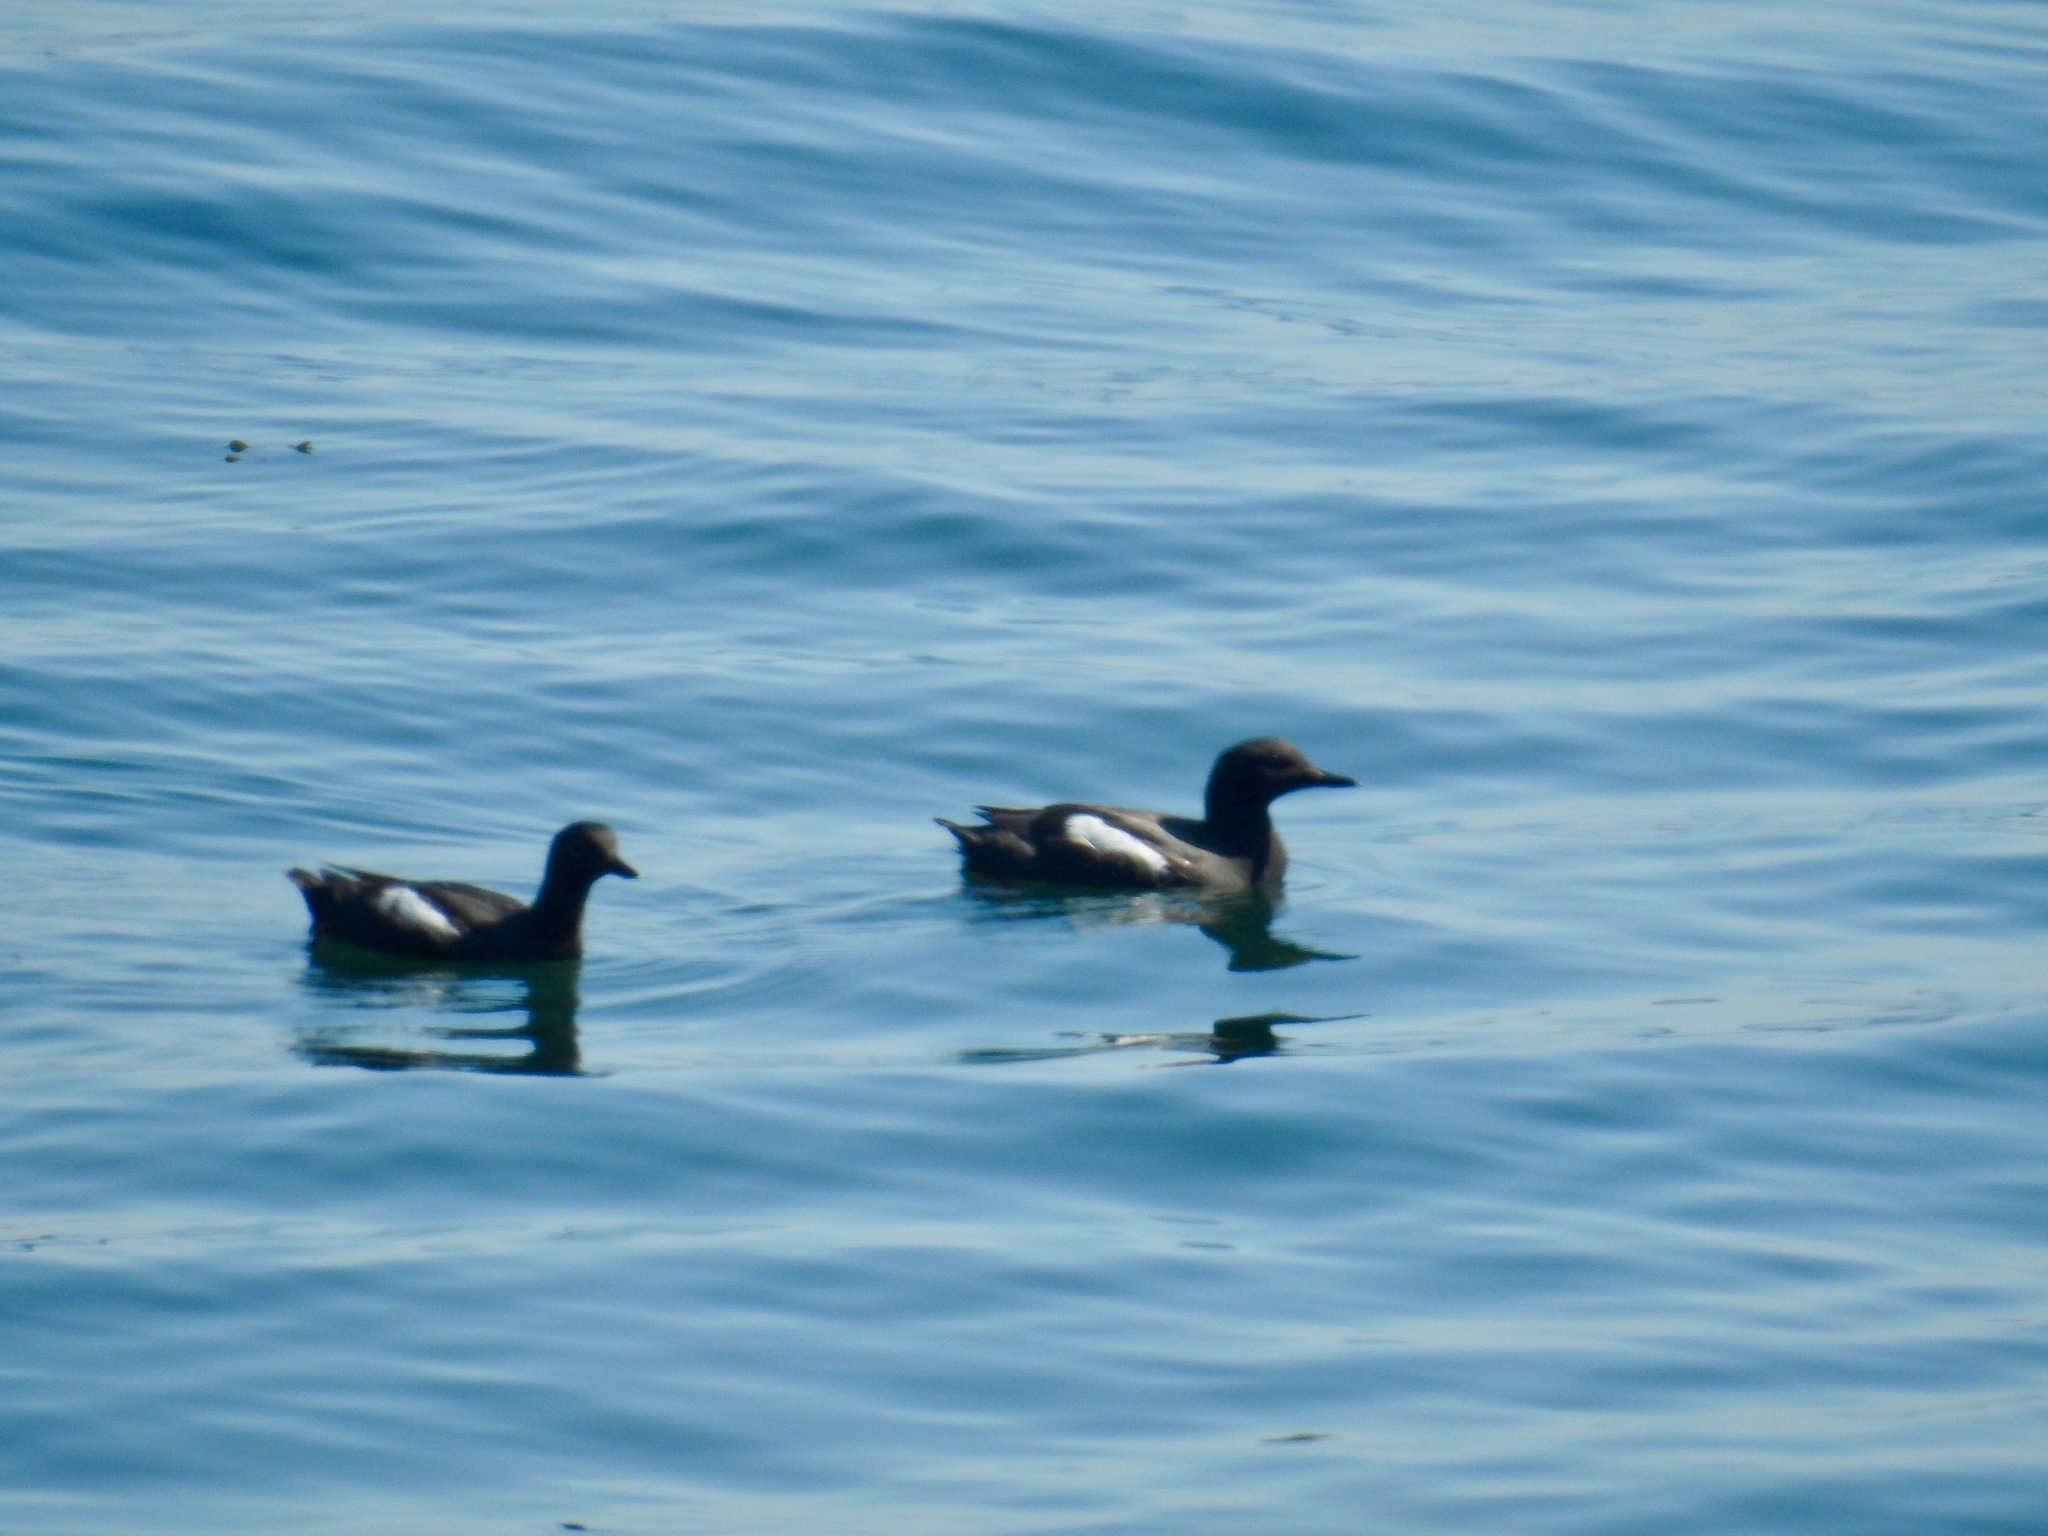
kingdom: Animalia
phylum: Chordata
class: Aves
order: Charadriiformes
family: Alcidae
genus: Cepphus
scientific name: Cepphus columba
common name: Pigeon guillemot
